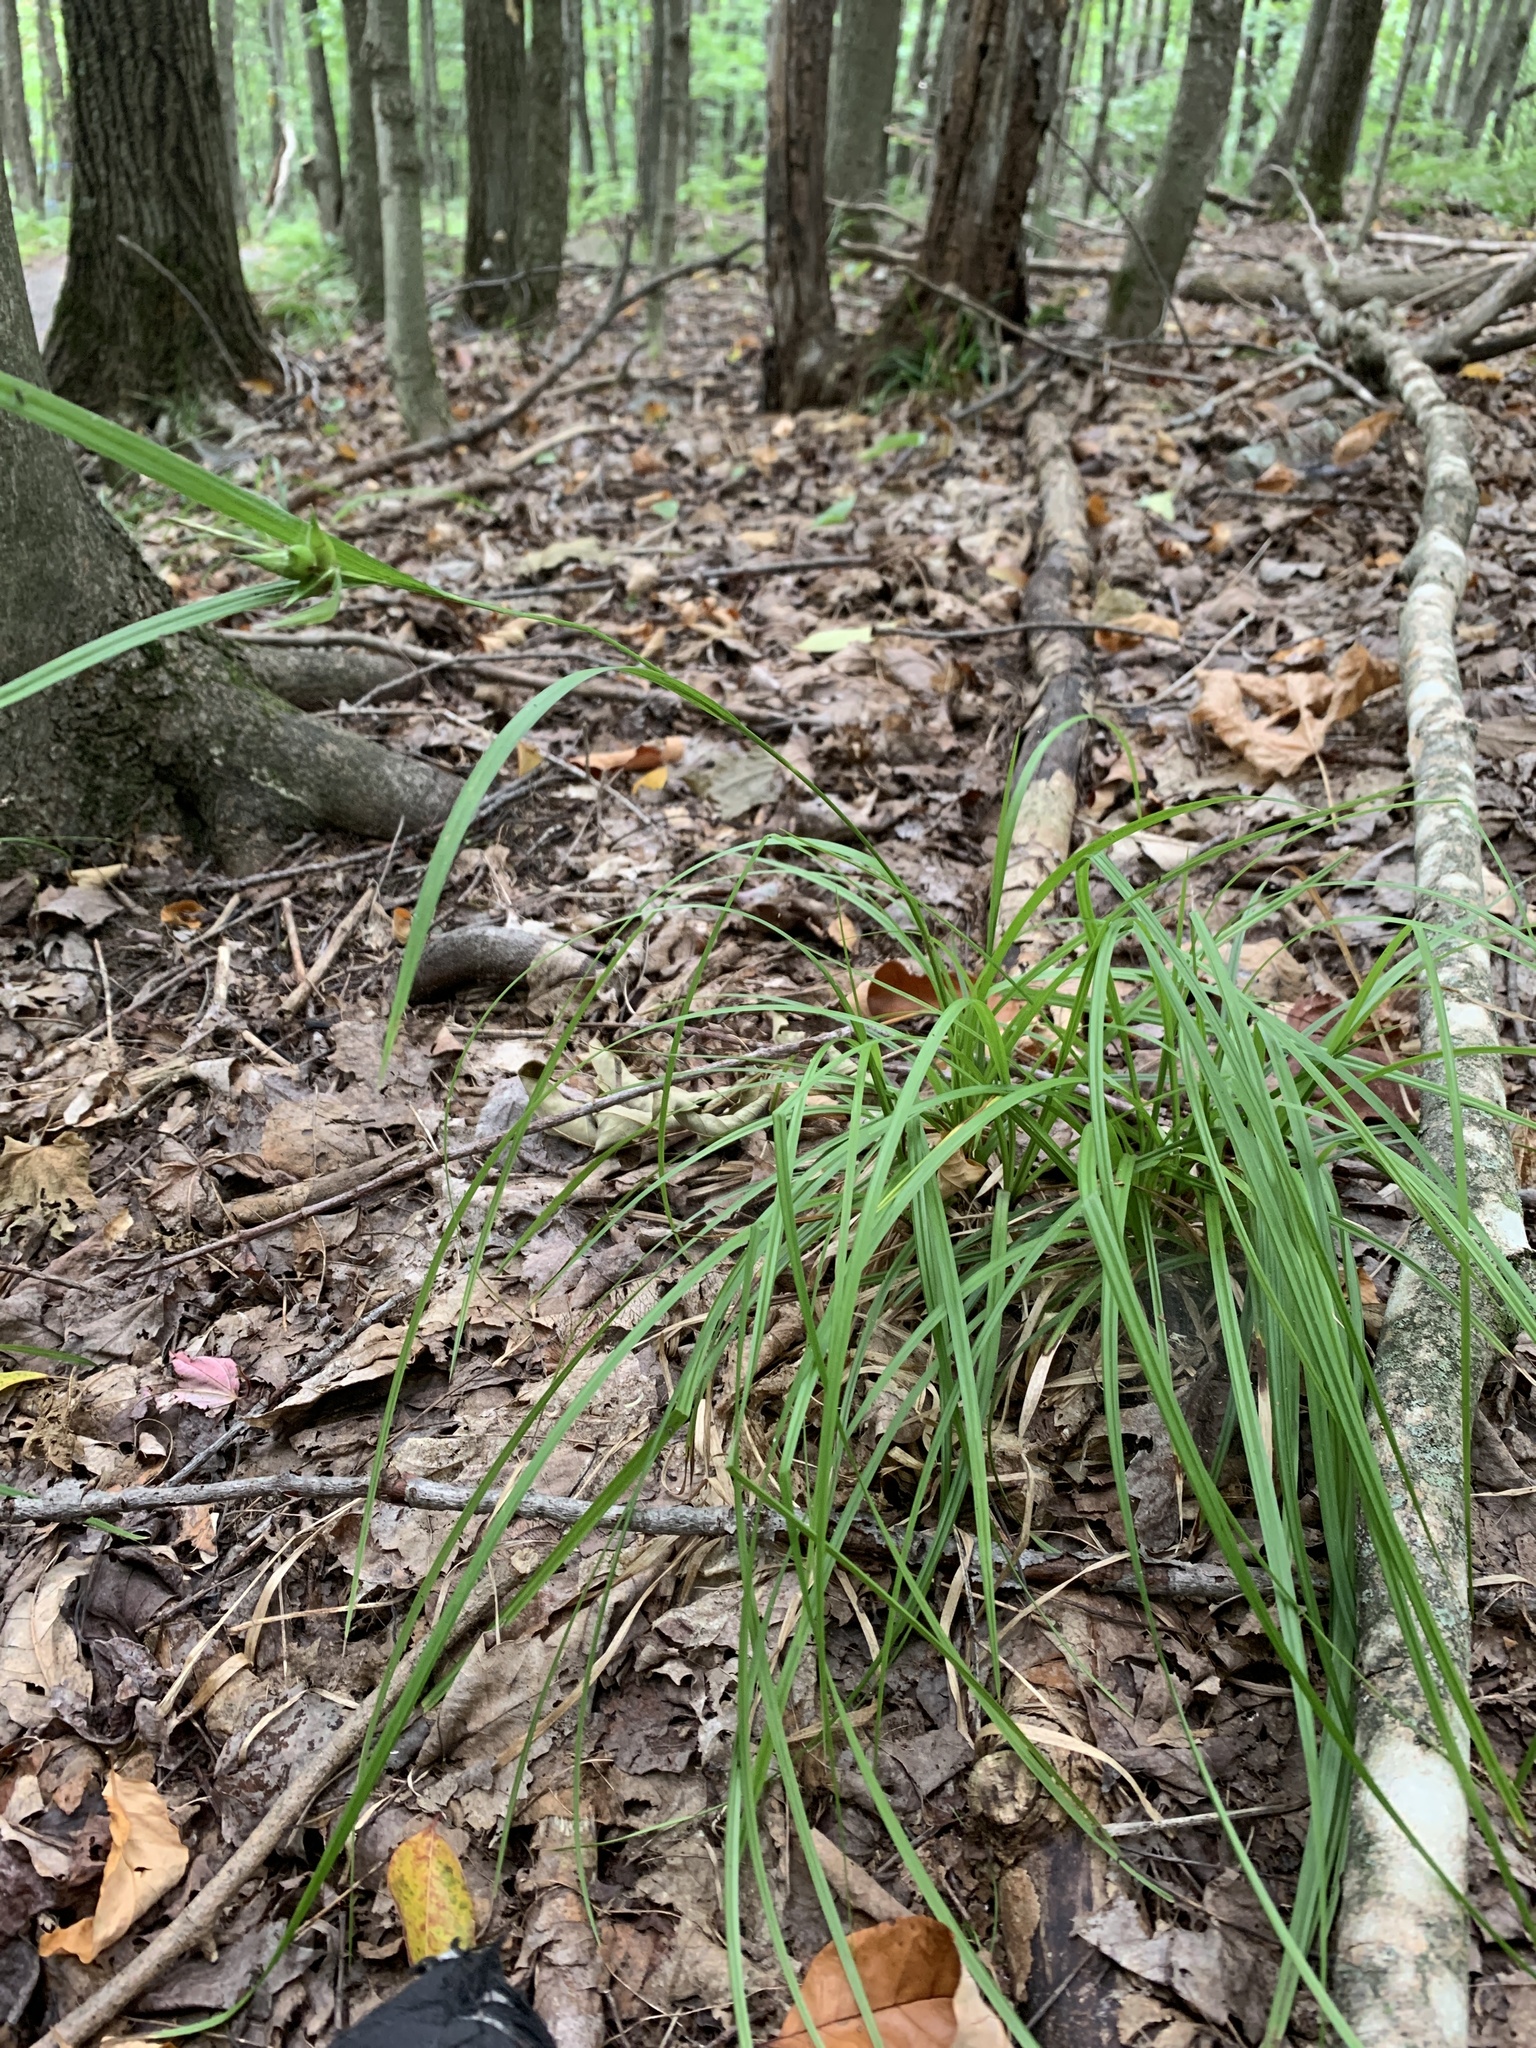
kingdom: Plantae
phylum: Tracheophyta
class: Liliopsida
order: Poales
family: Cyperaceae
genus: Carex
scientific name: Carex intumescens
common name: Greater bladder sedge
